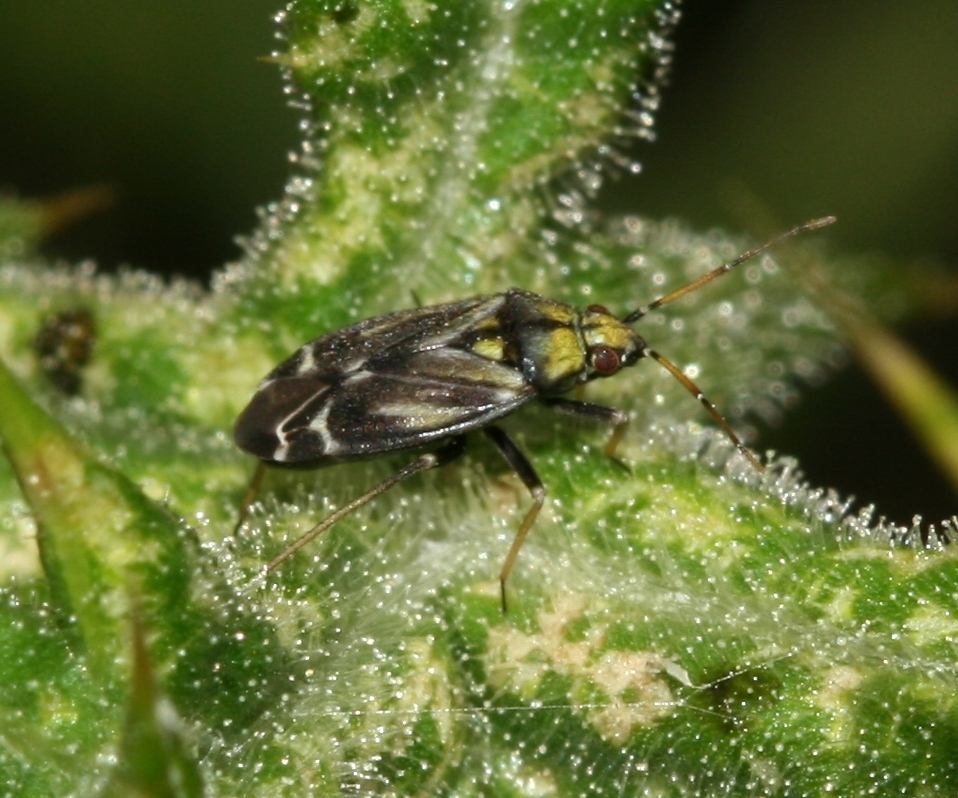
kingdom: Animalia
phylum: Arthropoda
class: Insecta
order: Hemiptera
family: Miridae
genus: Macrotylus
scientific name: Macrotylus perdictus
